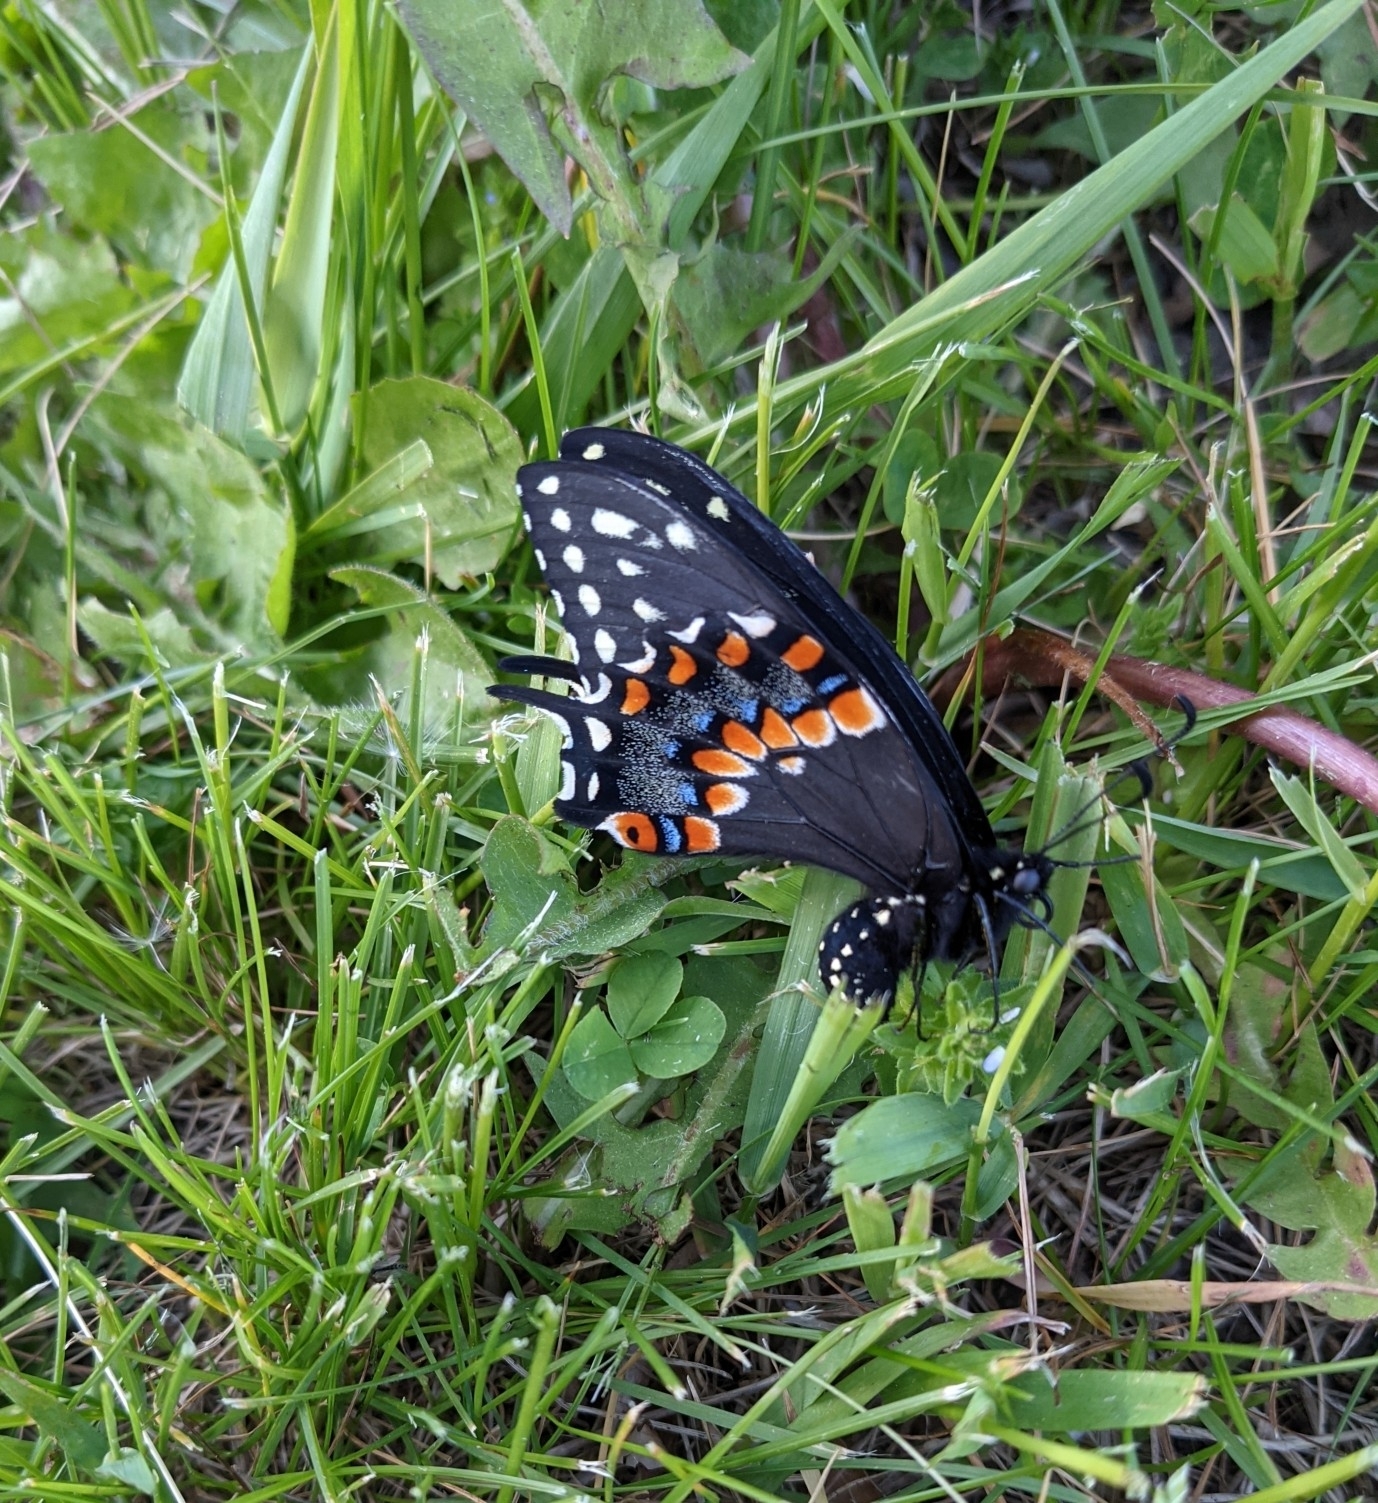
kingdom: Animalia
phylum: Arthropoda
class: Insecta
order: Lepidoptera
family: Papilionidae
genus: Papilio
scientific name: Papilio polyxenes
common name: Black swallowtail
